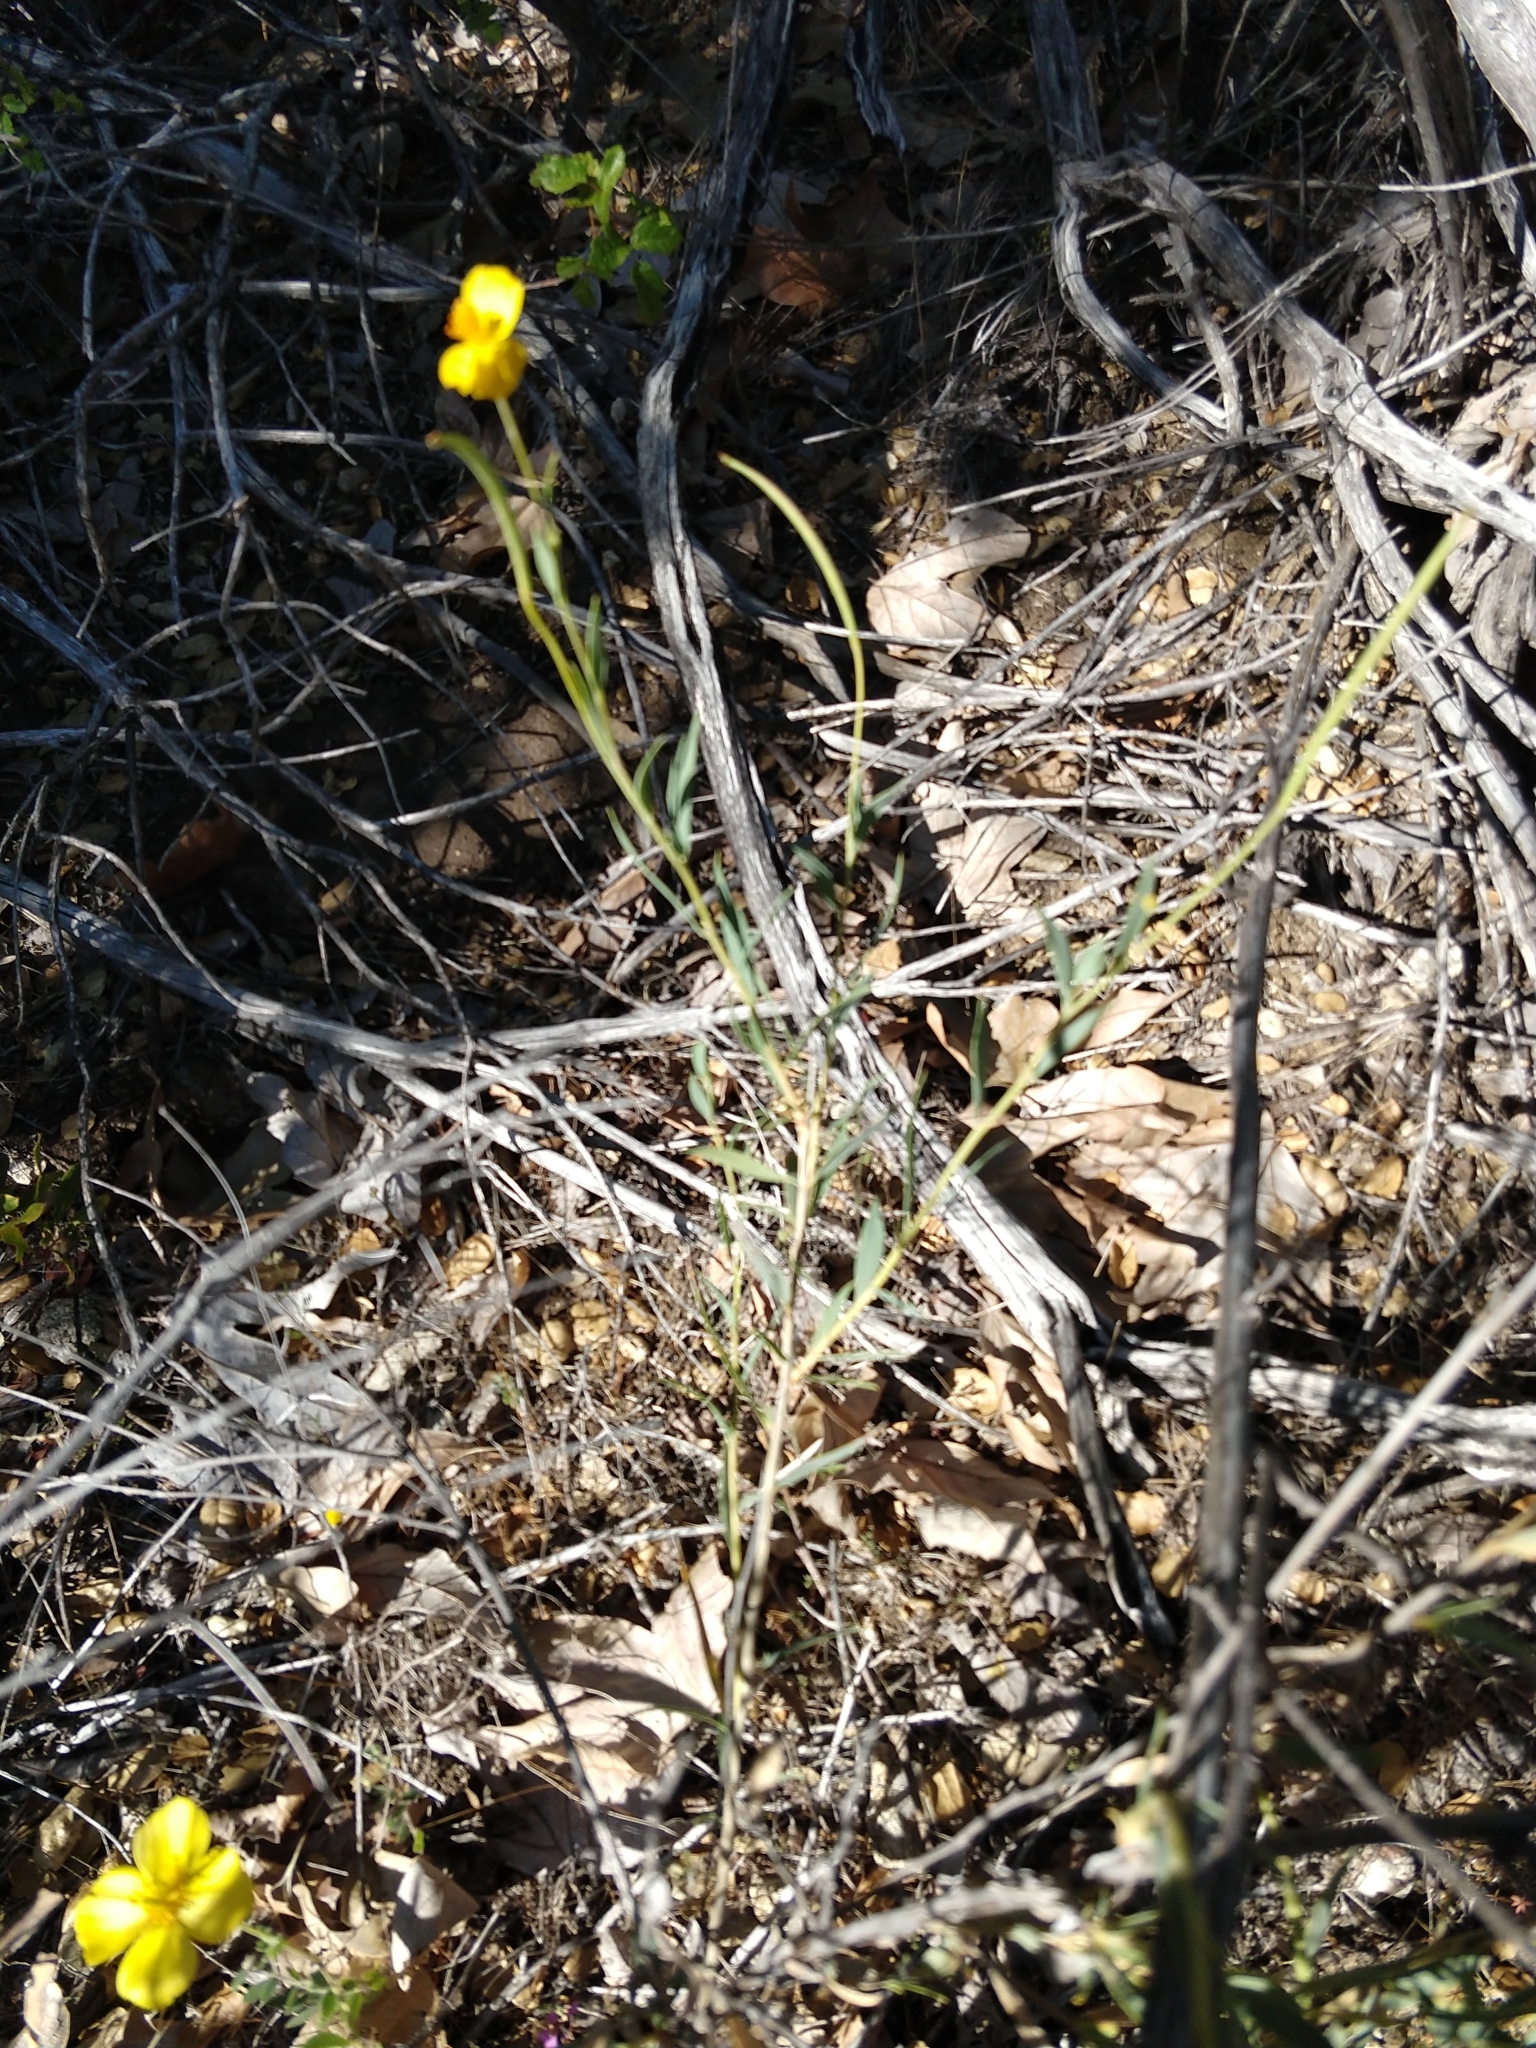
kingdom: Plantae
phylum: Tracheophyta
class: Magnoliopsida
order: Ranunculales
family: Papaveraceae
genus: Dendromecon
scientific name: Dendromecon rigida
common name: Tree poppy
